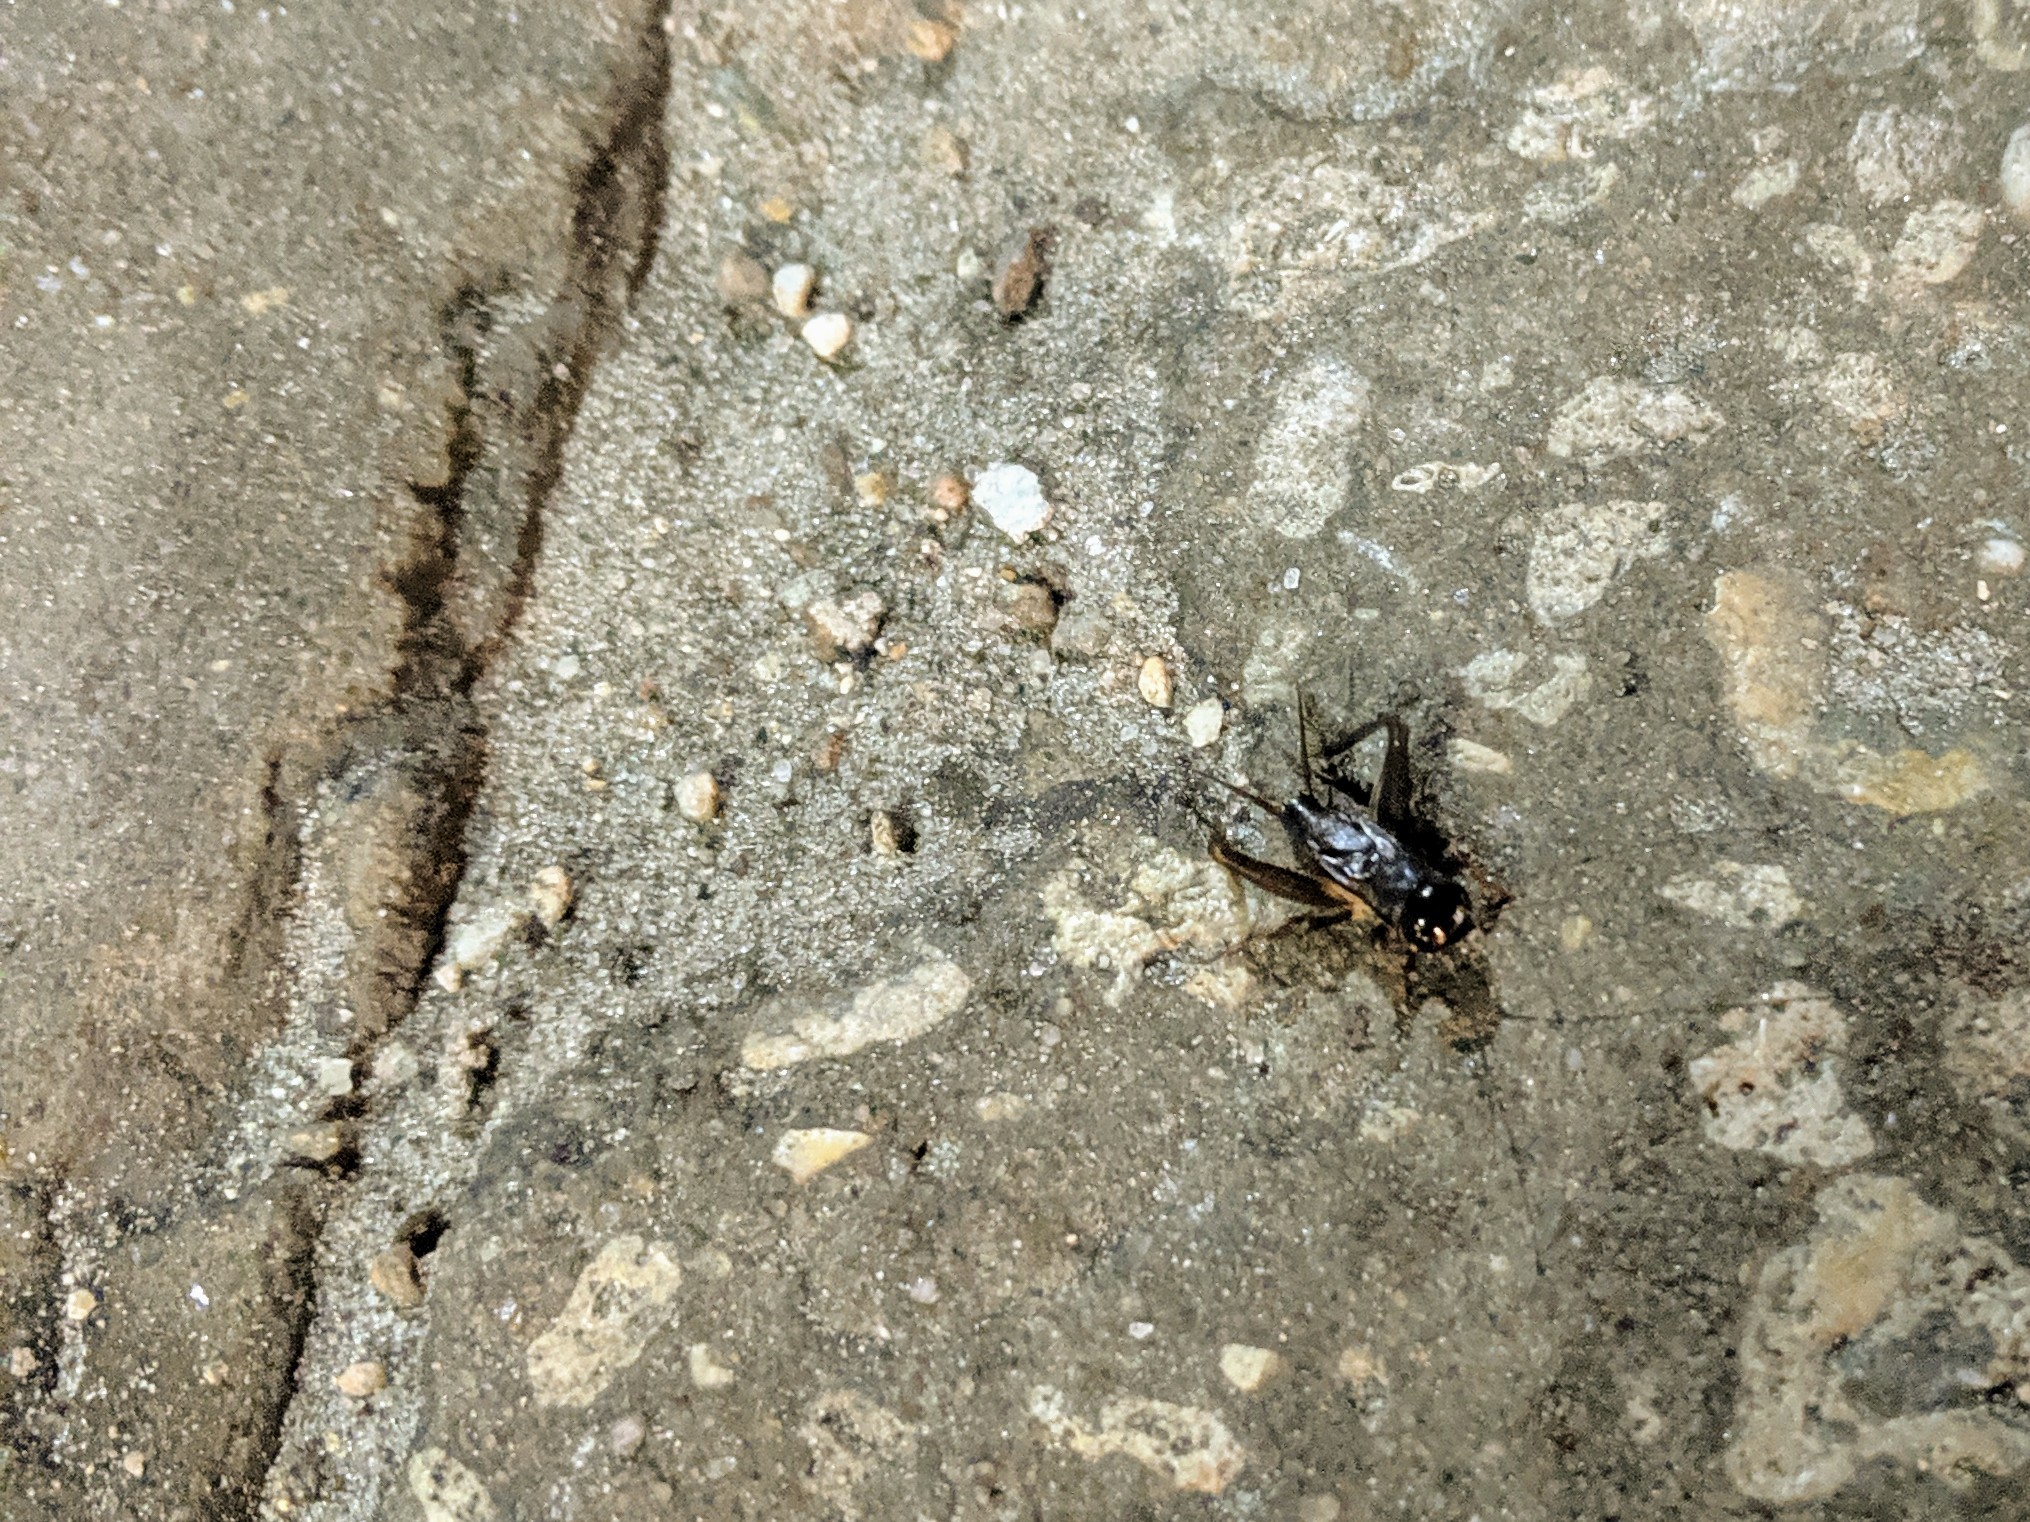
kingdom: Animalia
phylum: Arthropoda
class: Insecta
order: Orthoptera
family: Gryllidae
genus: Miogryllus
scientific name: Miogryllus verticalis
